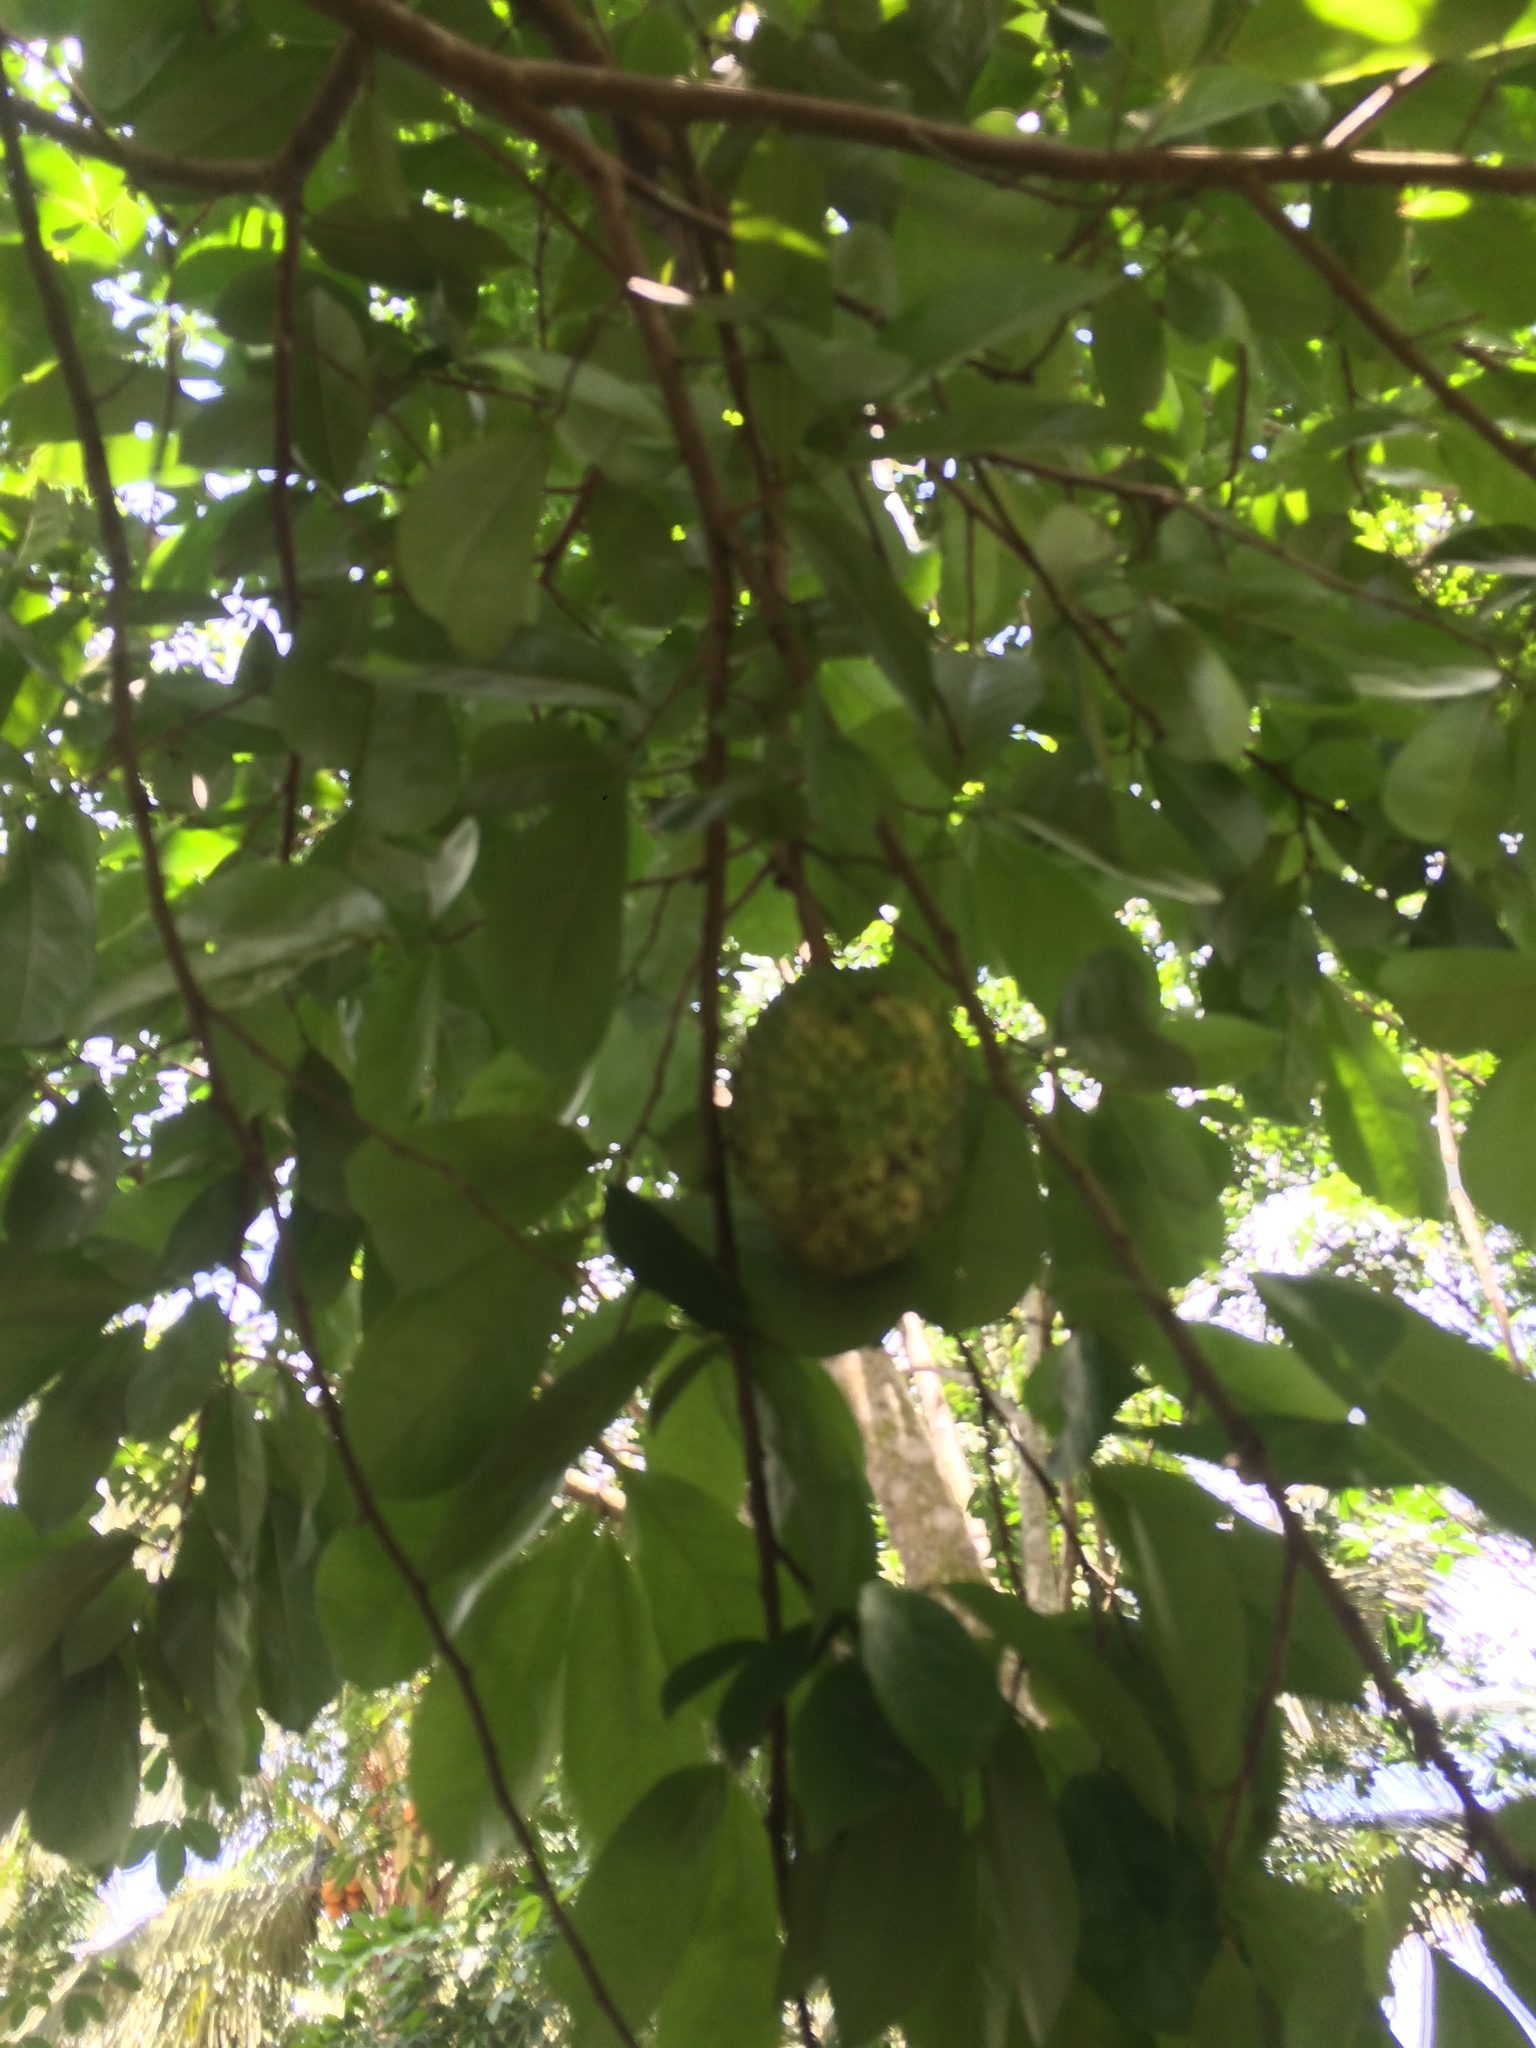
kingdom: Plantae
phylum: Tracheophyta
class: Magnoliopsida
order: Magnoliales
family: Annonaceae
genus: Annona
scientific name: Annona muricata
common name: Soursop
